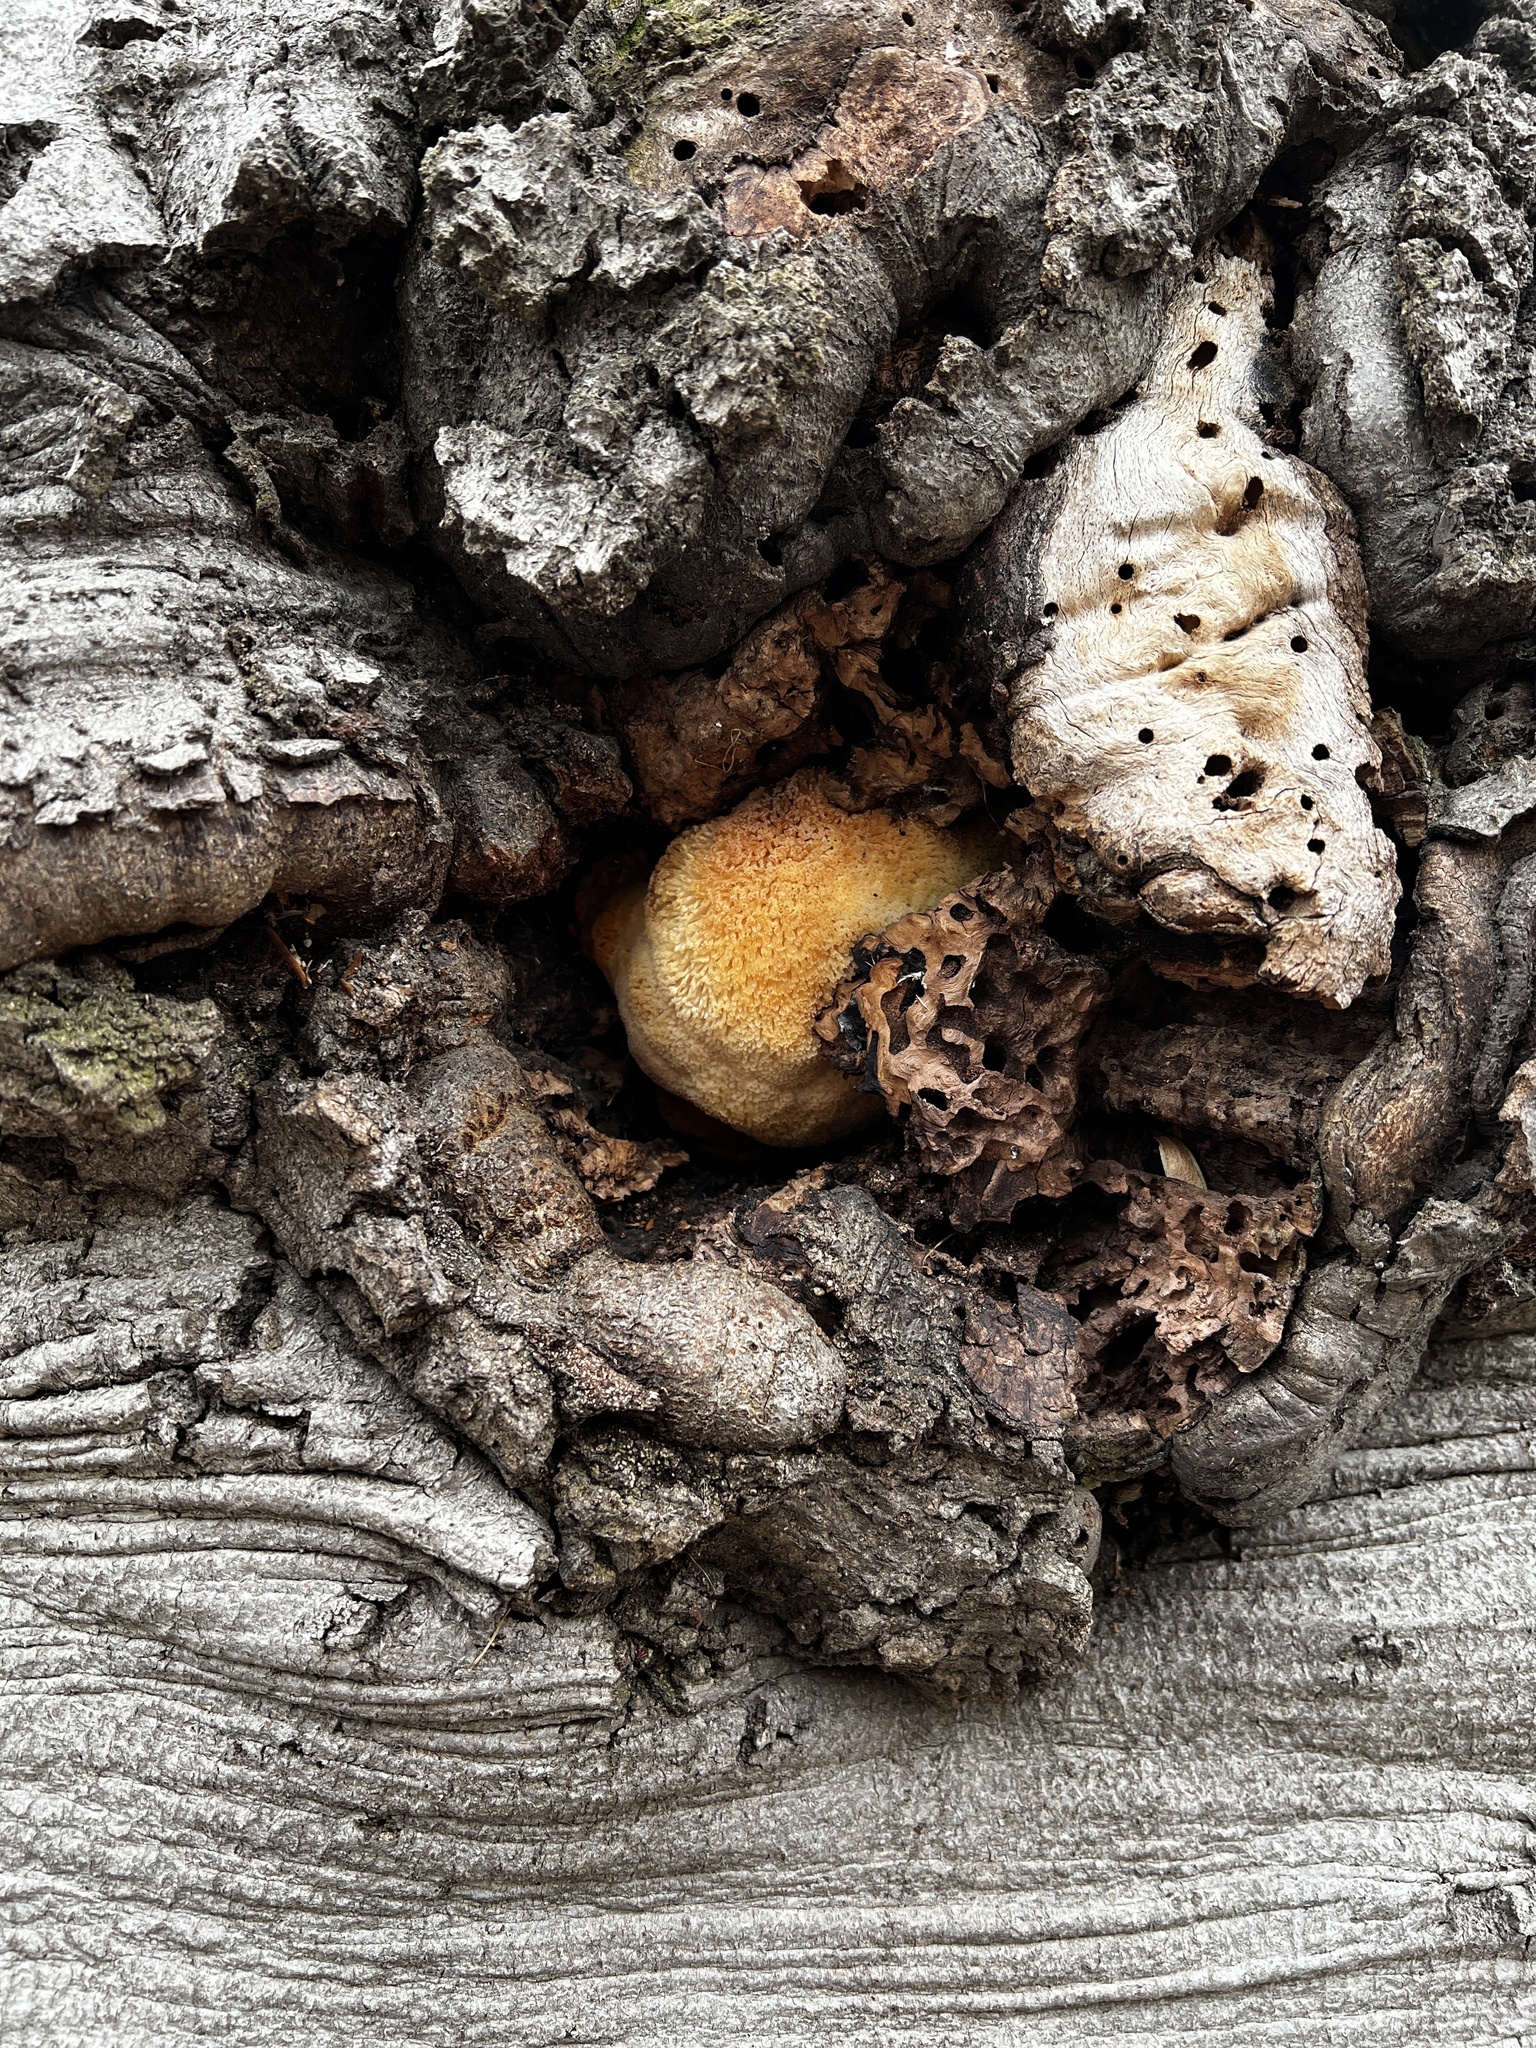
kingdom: Fungi
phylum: Basidiomycota
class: Agaricomycetes
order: Russulales
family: Hericiaceae
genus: Hericium
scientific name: Hericium erinaceus
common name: Bearded tooth
